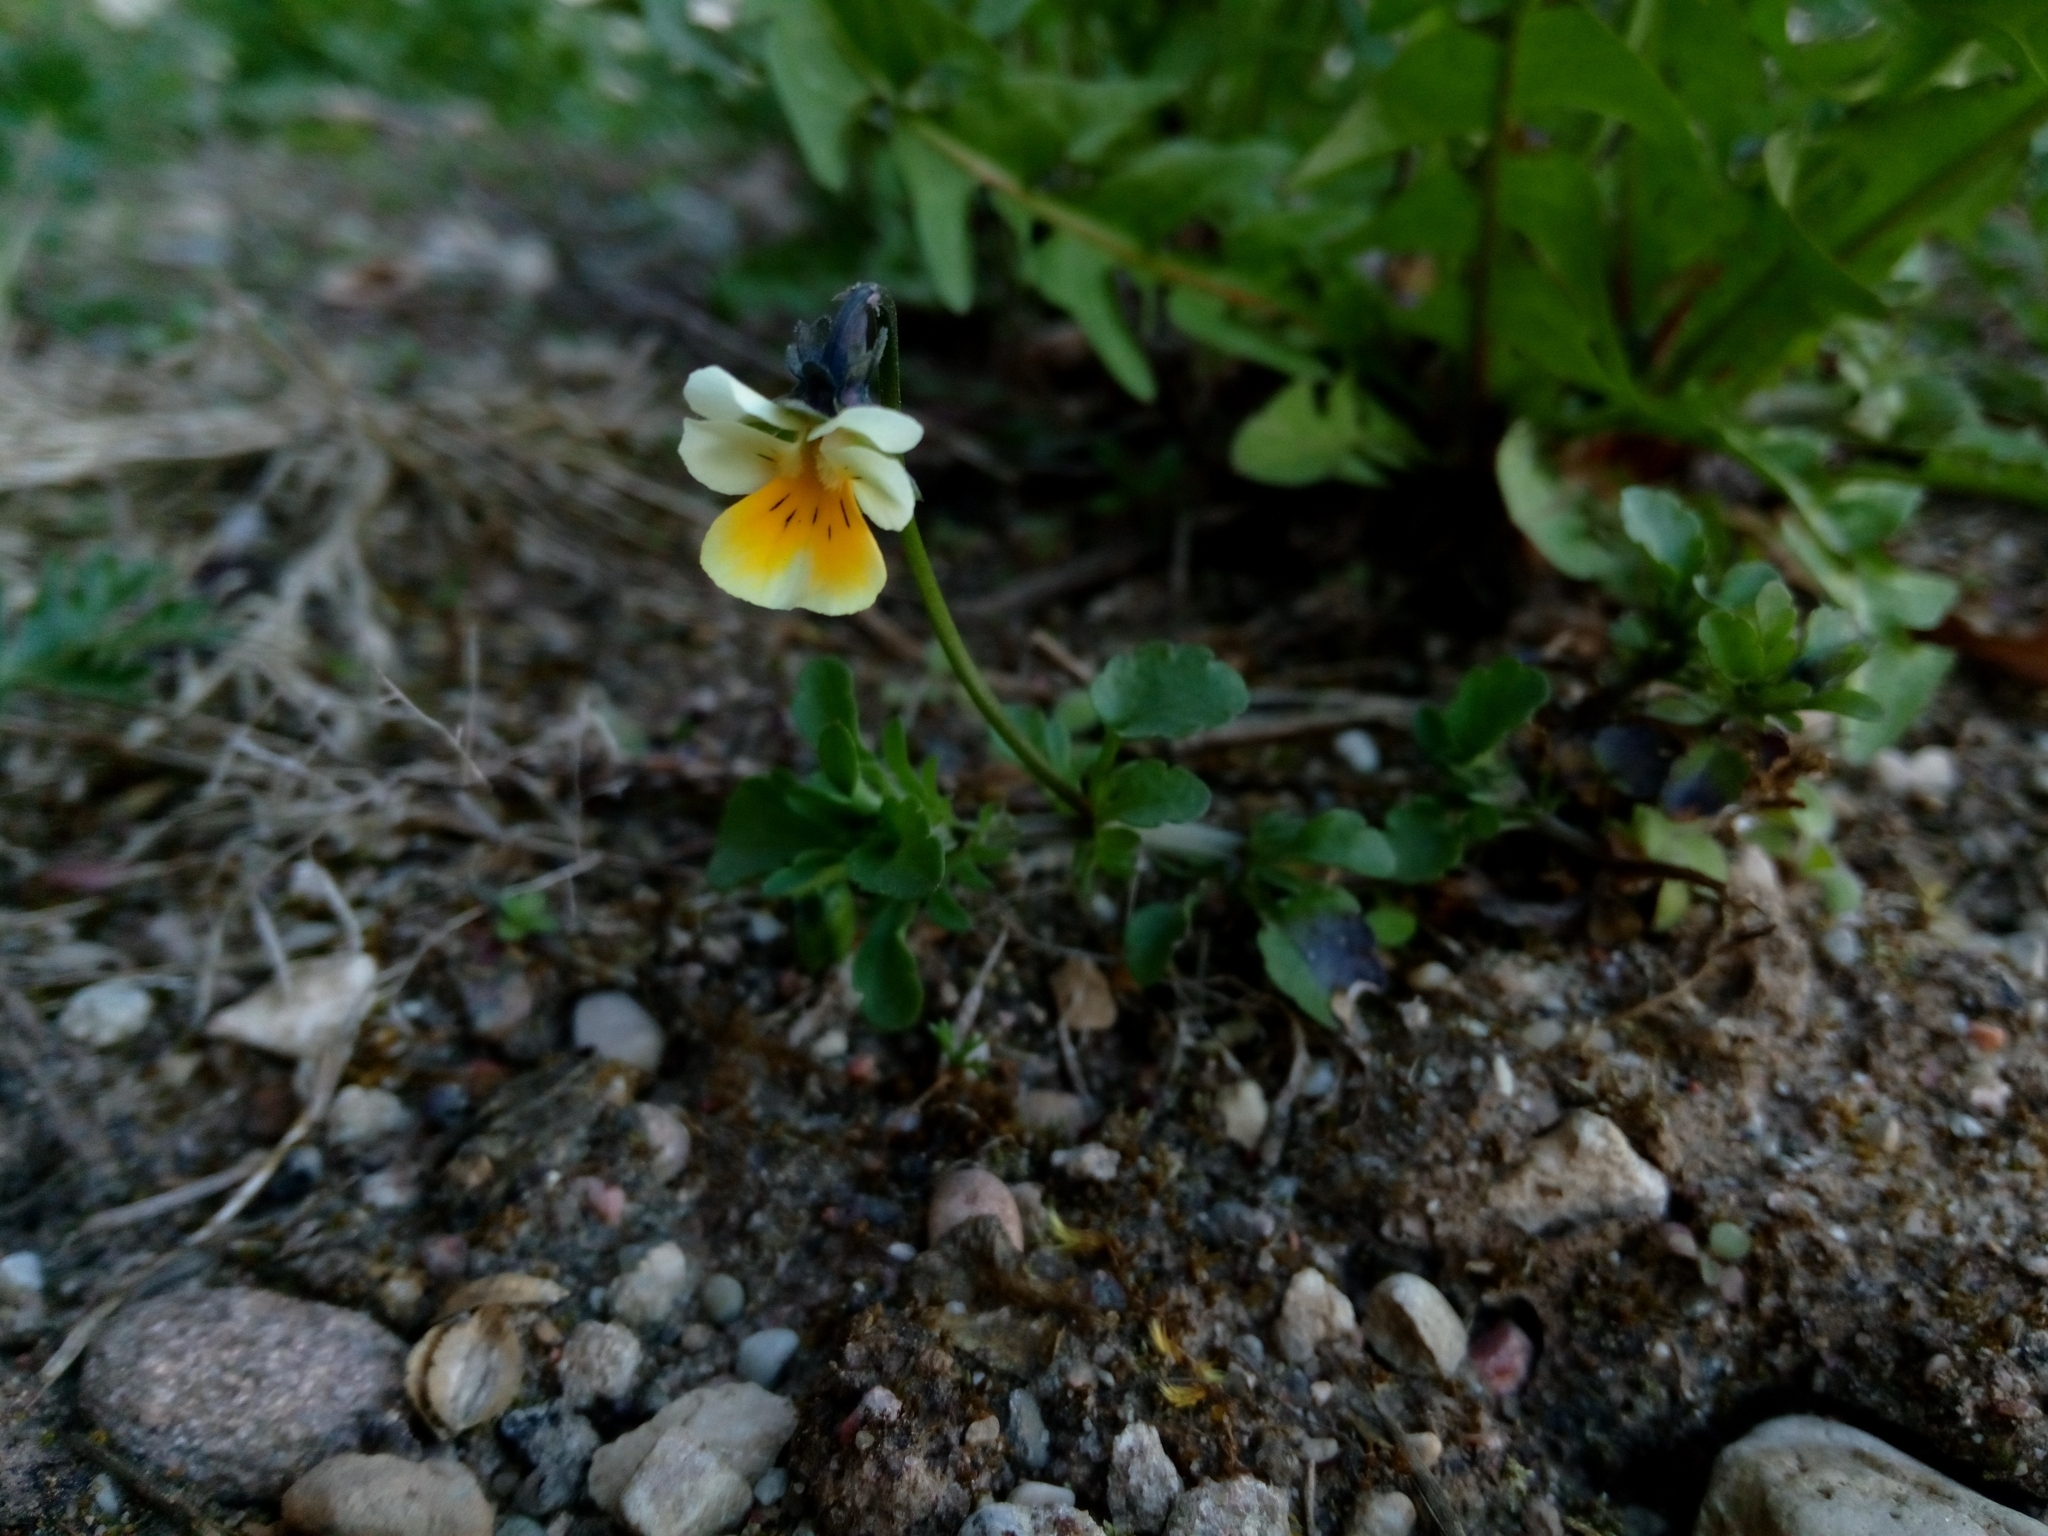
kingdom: Plantae
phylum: Tracheophyta
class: Magnoliopsida
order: Malpighiales
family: Violaceae
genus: Viola
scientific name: Viola arvensis
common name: Field pansy
